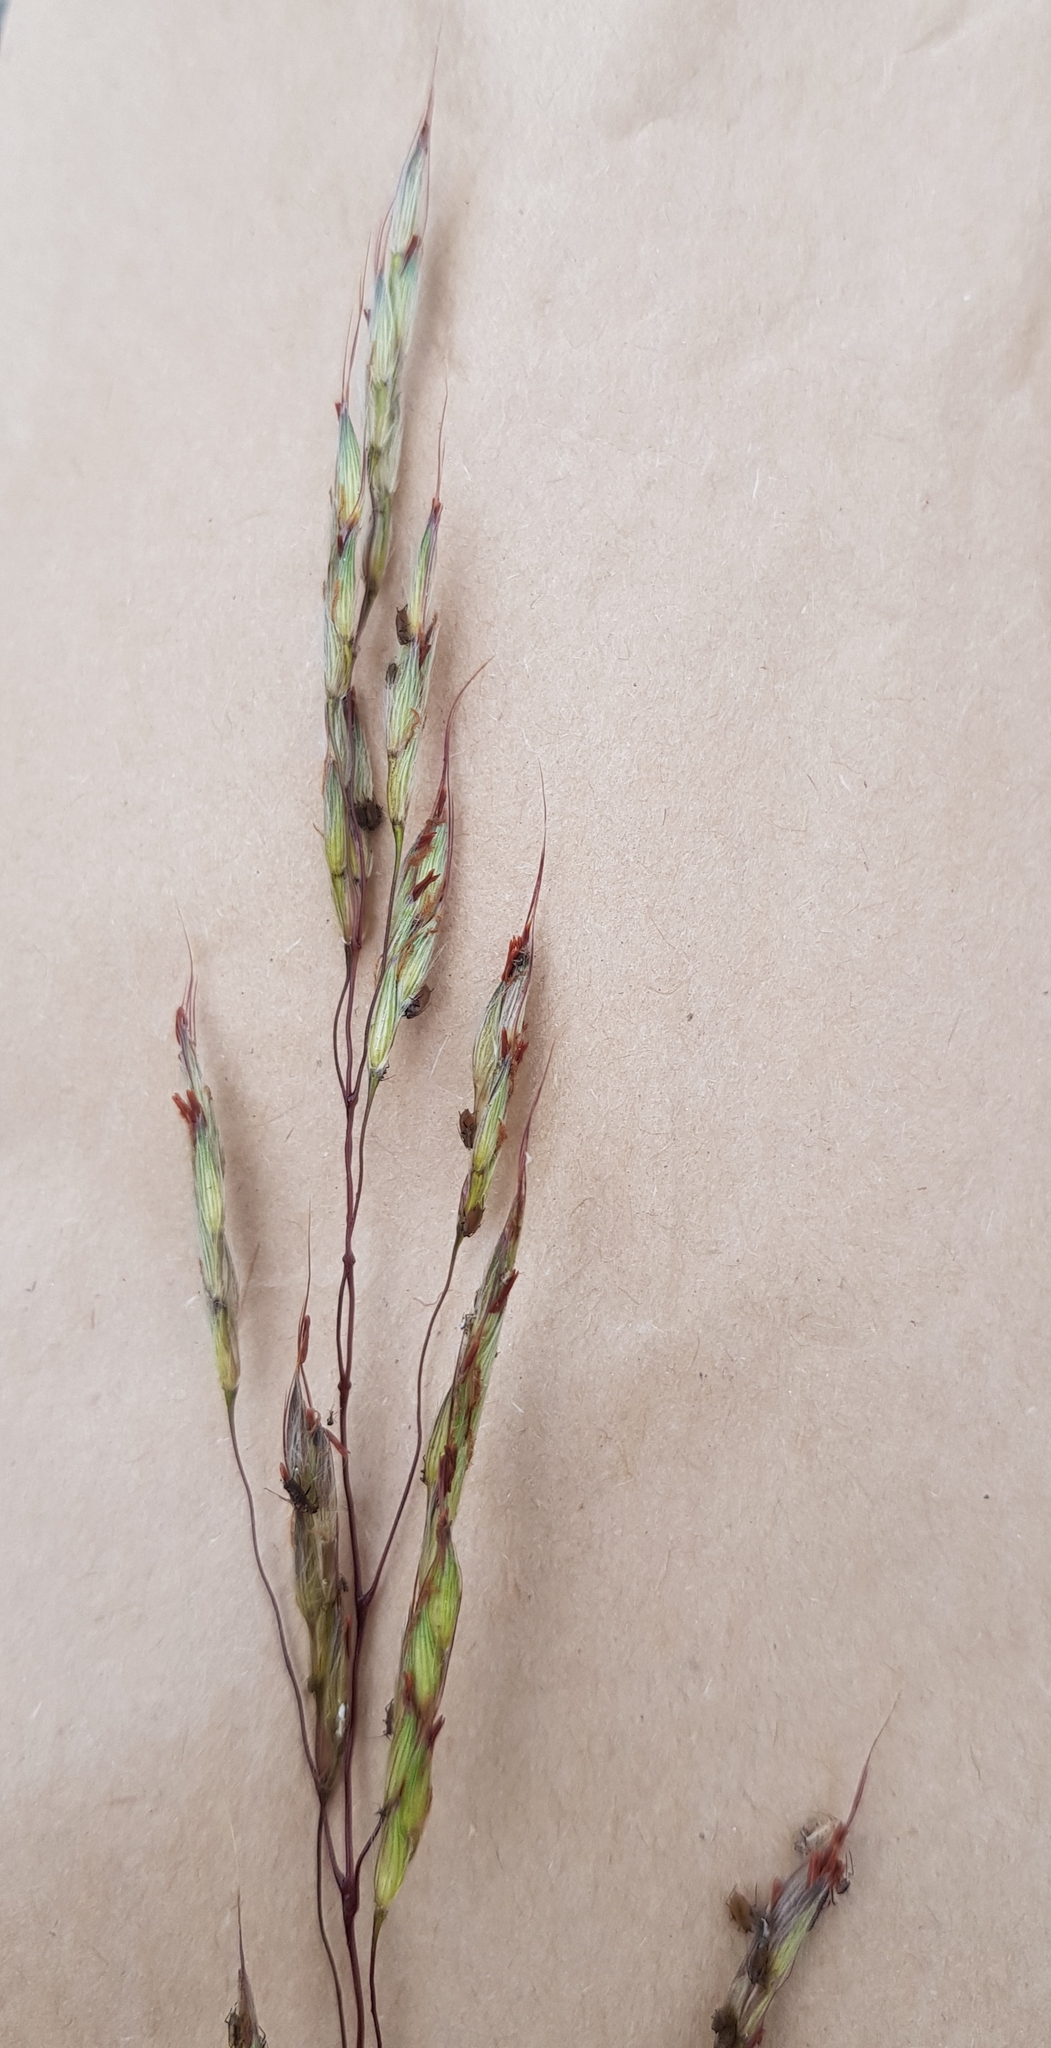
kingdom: Plantae
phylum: Tracheophyta
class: Liliopsida
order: Poales
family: Poaceae
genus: Spodiopogon
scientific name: Spodiopogon sibiricus
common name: Siberian graybeard
